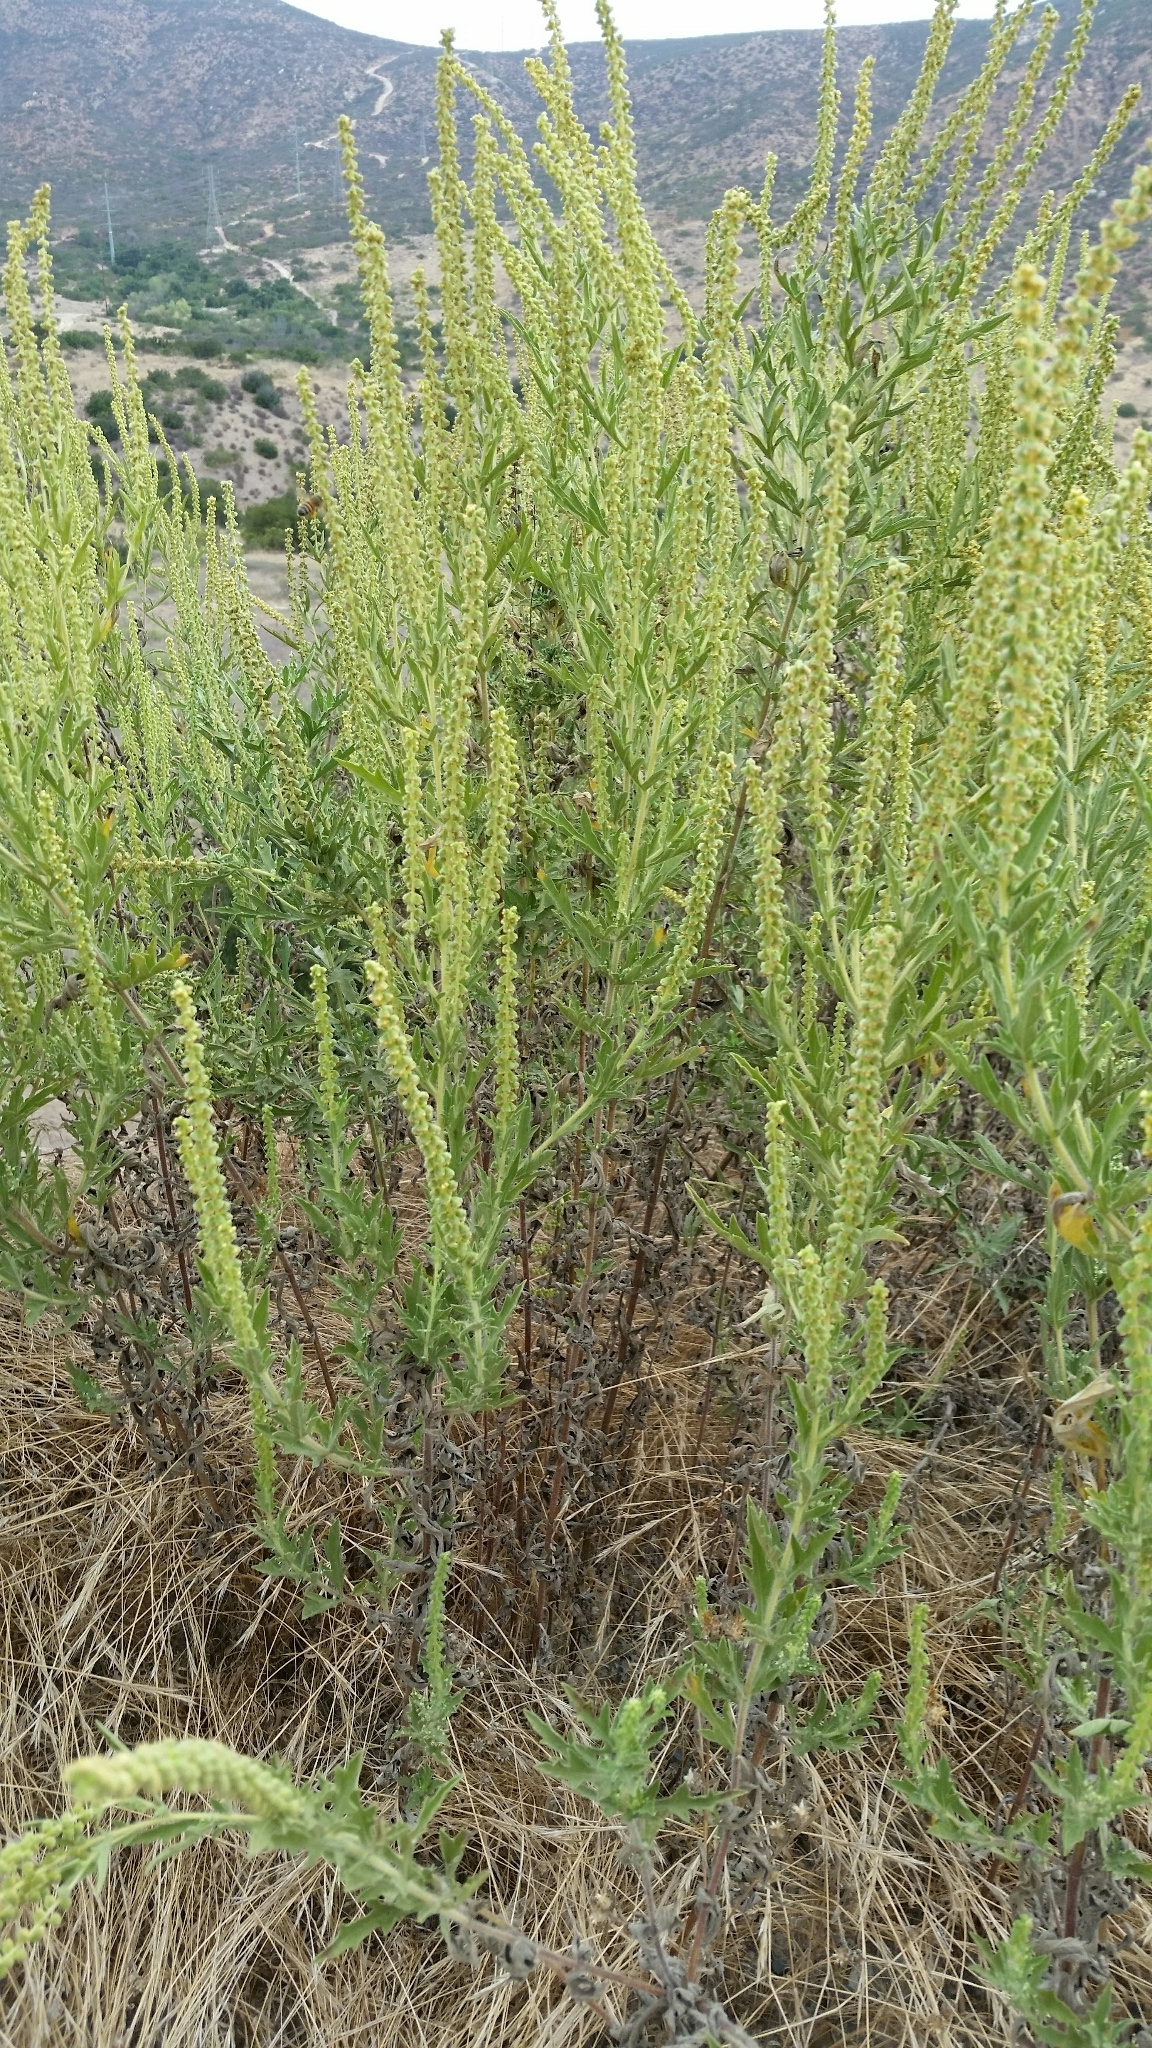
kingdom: Plantae
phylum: Tracheophyta
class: Magnoliopsida
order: Asterales
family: Asteraceae
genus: Ambrosia
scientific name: Ambrosia psilostachya
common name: Perennial ragweed
